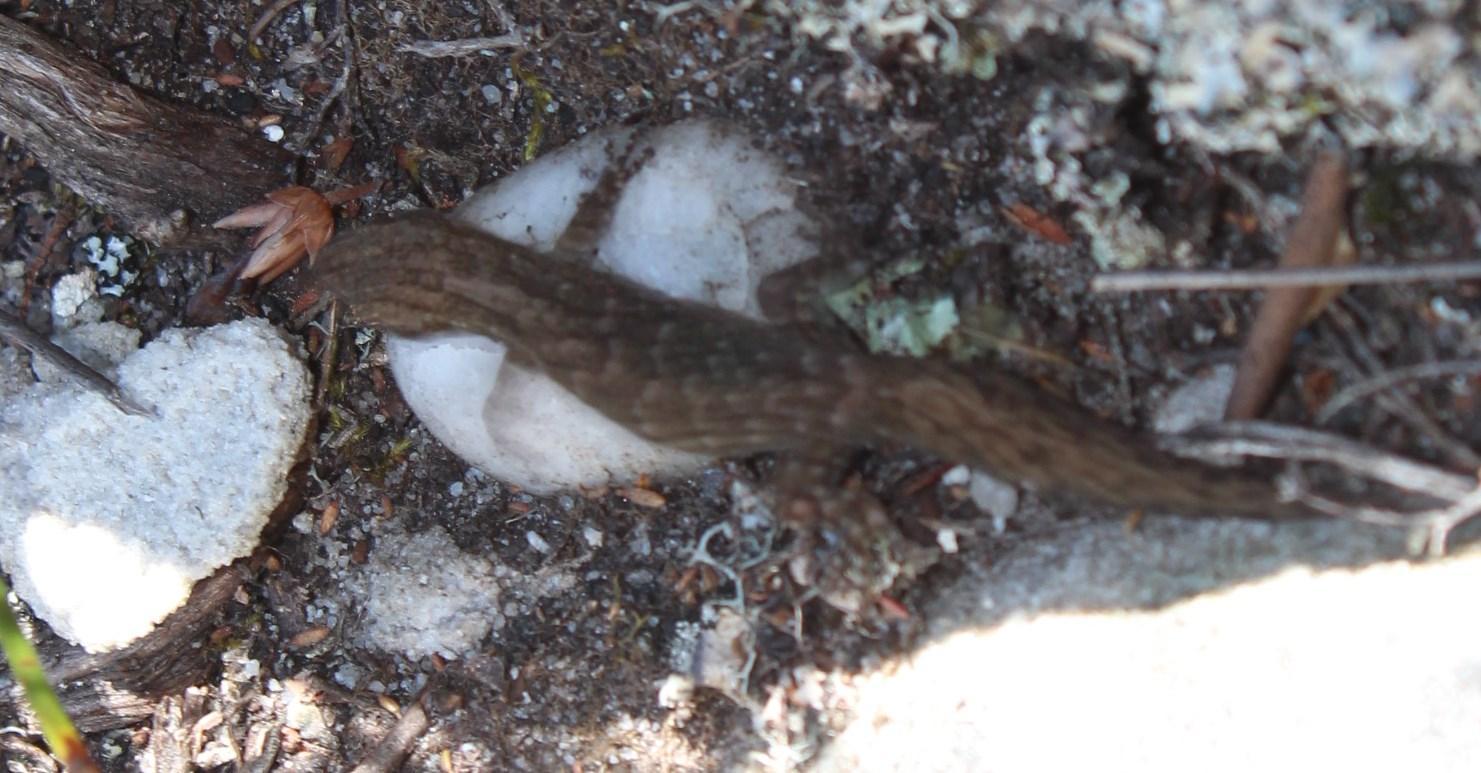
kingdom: Animalia
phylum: Chordata
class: Squamata
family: Gekkonidae
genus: Afrogecko
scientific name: Afrogecko porphyreus
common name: Marbled leaf-toed gecko
